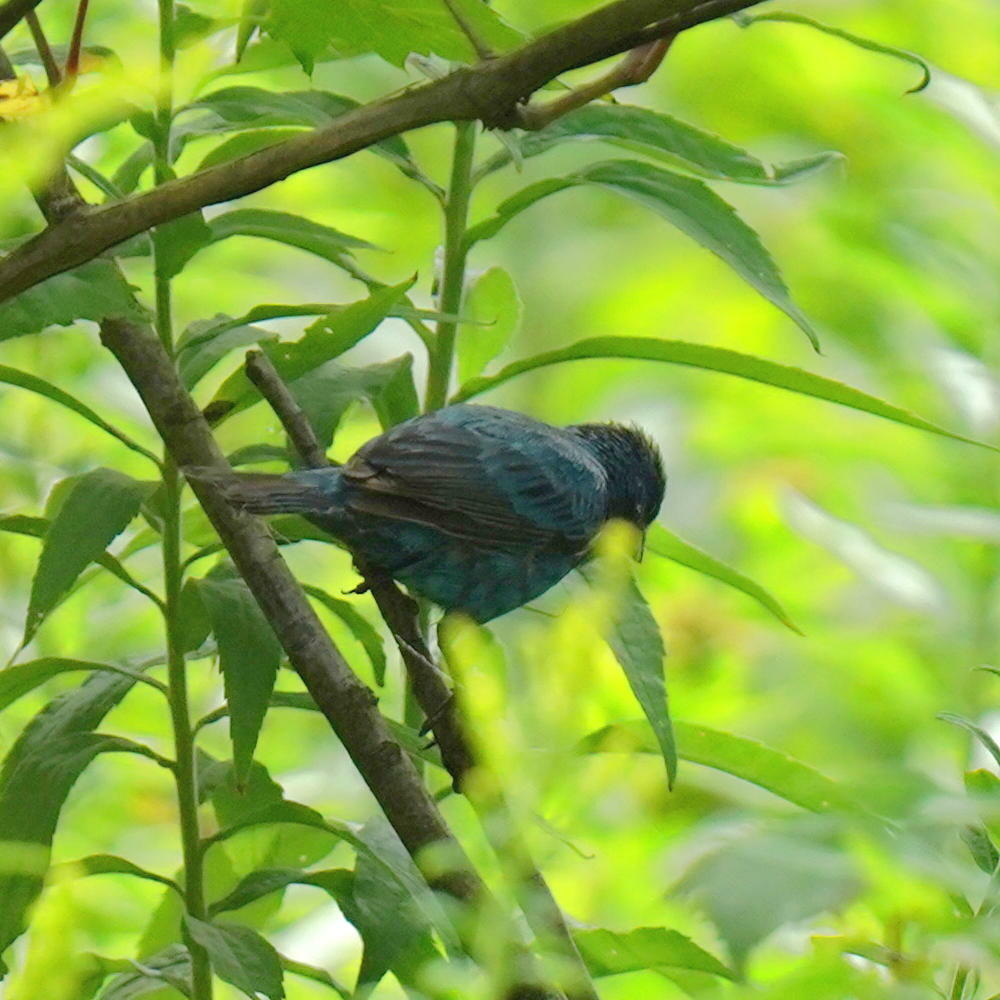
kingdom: Animalia
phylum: Chordata
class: Aves
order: Passeriformes
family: Cardinalidae
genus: Passerina
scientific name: Passerina cyanea
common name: Indigo bunting
